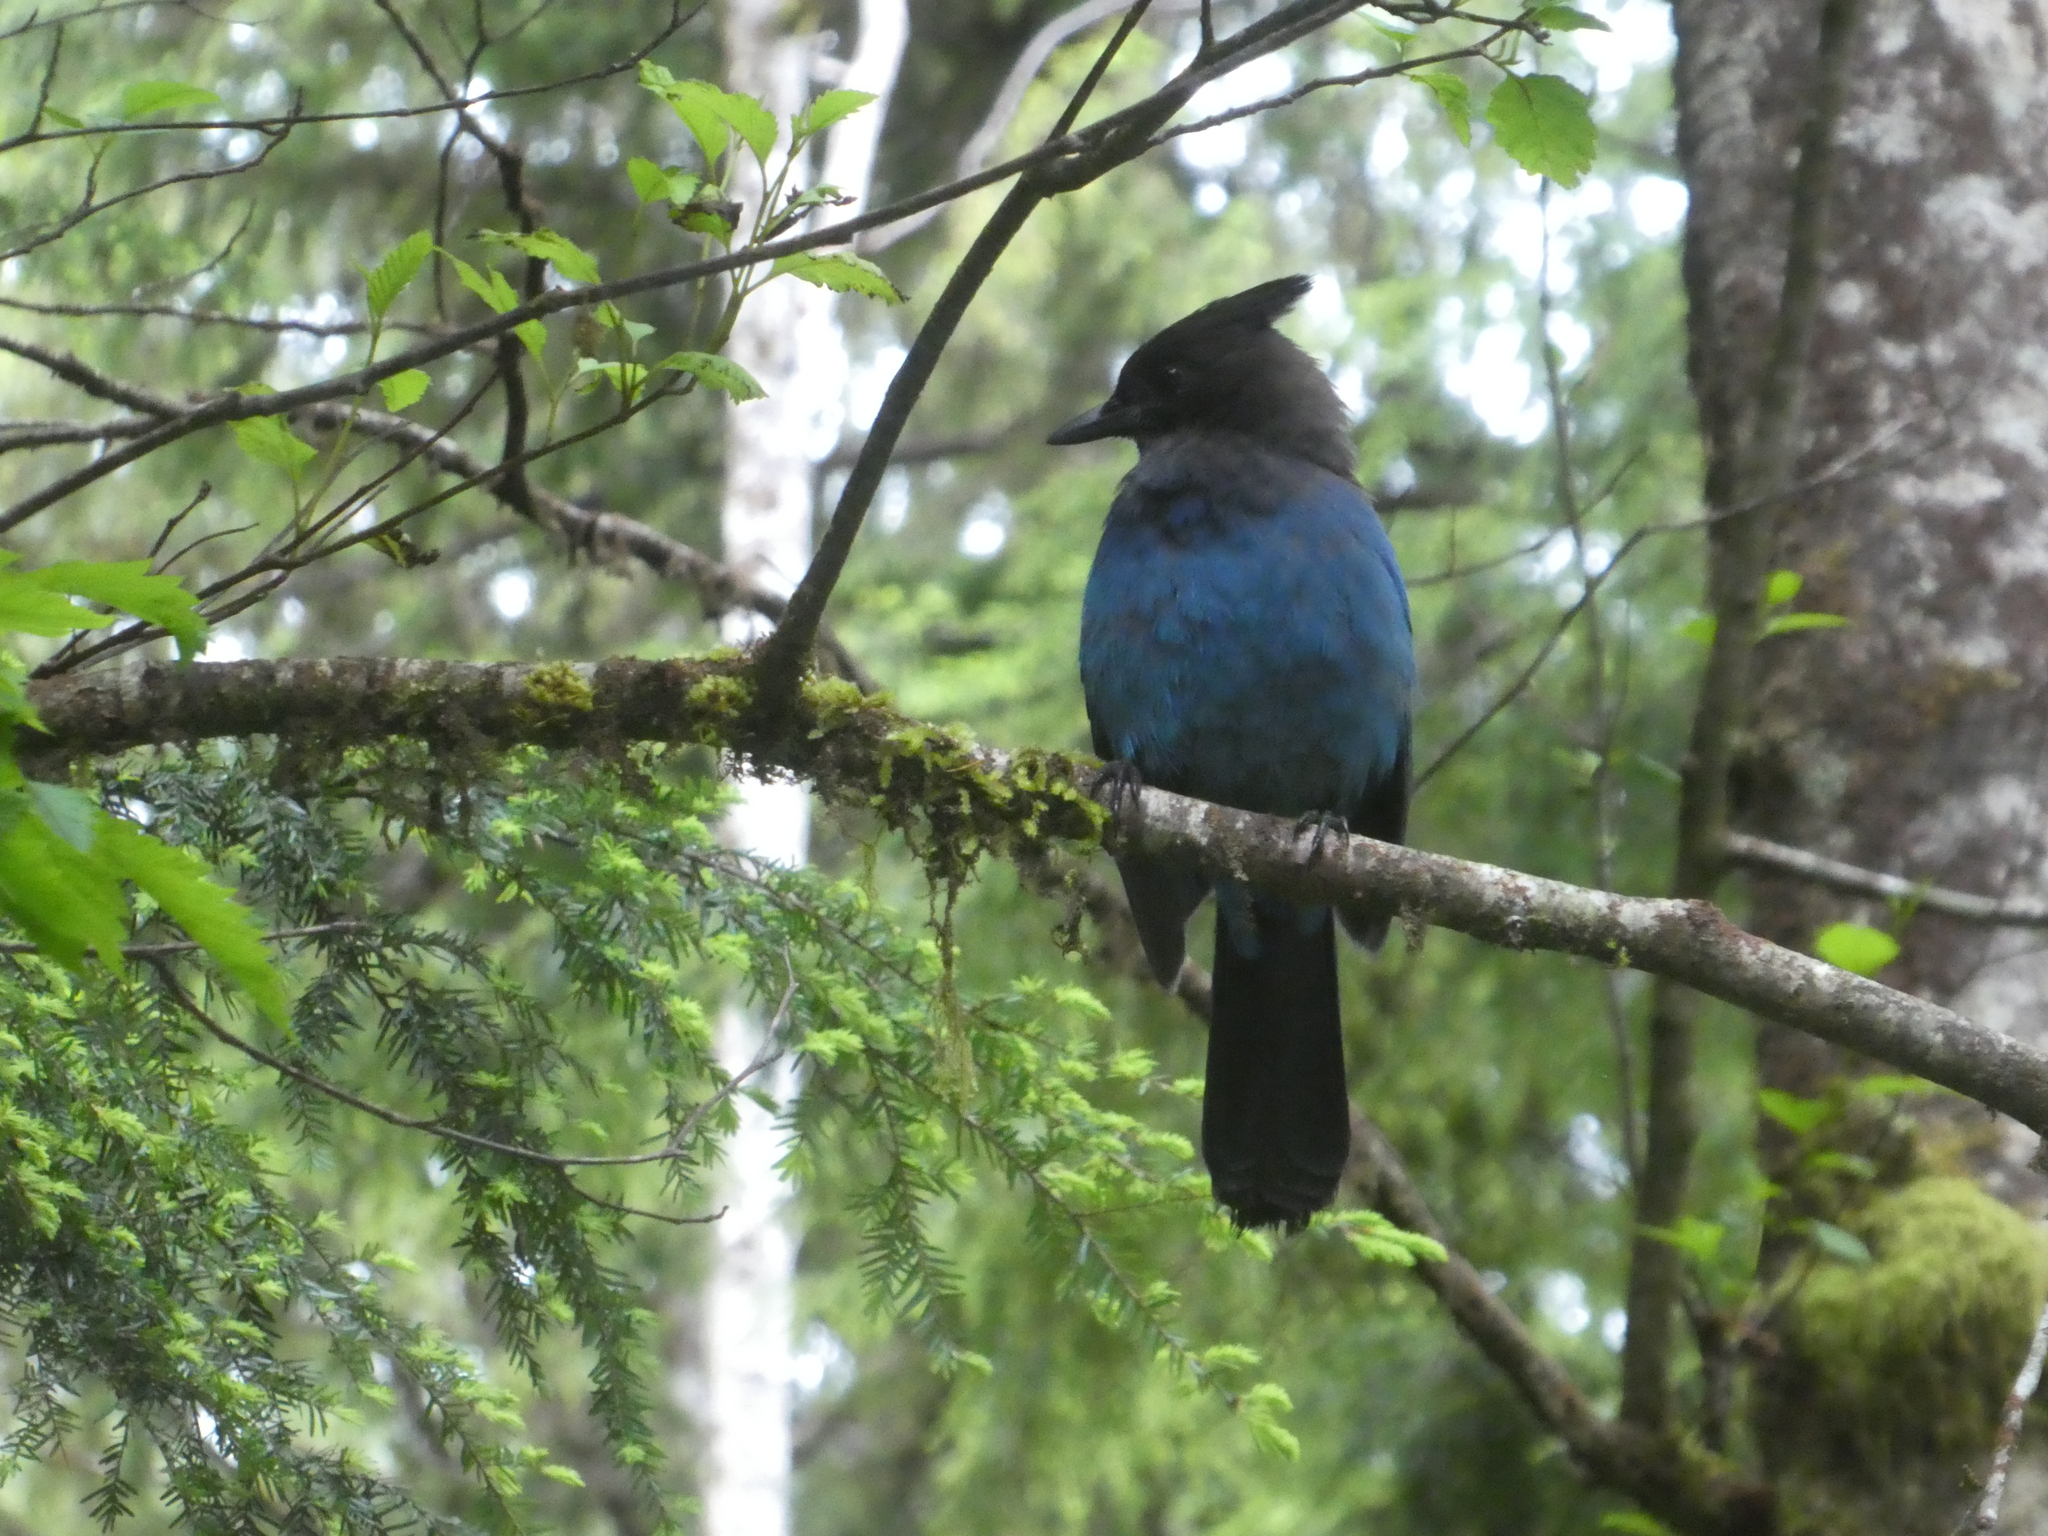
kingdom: Animalia
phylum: Chordata
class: Aves
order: Passeriformes
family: Corvidae
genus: Cyanocitta
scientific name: Cyanocitta stelleri
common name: Steller's jay
